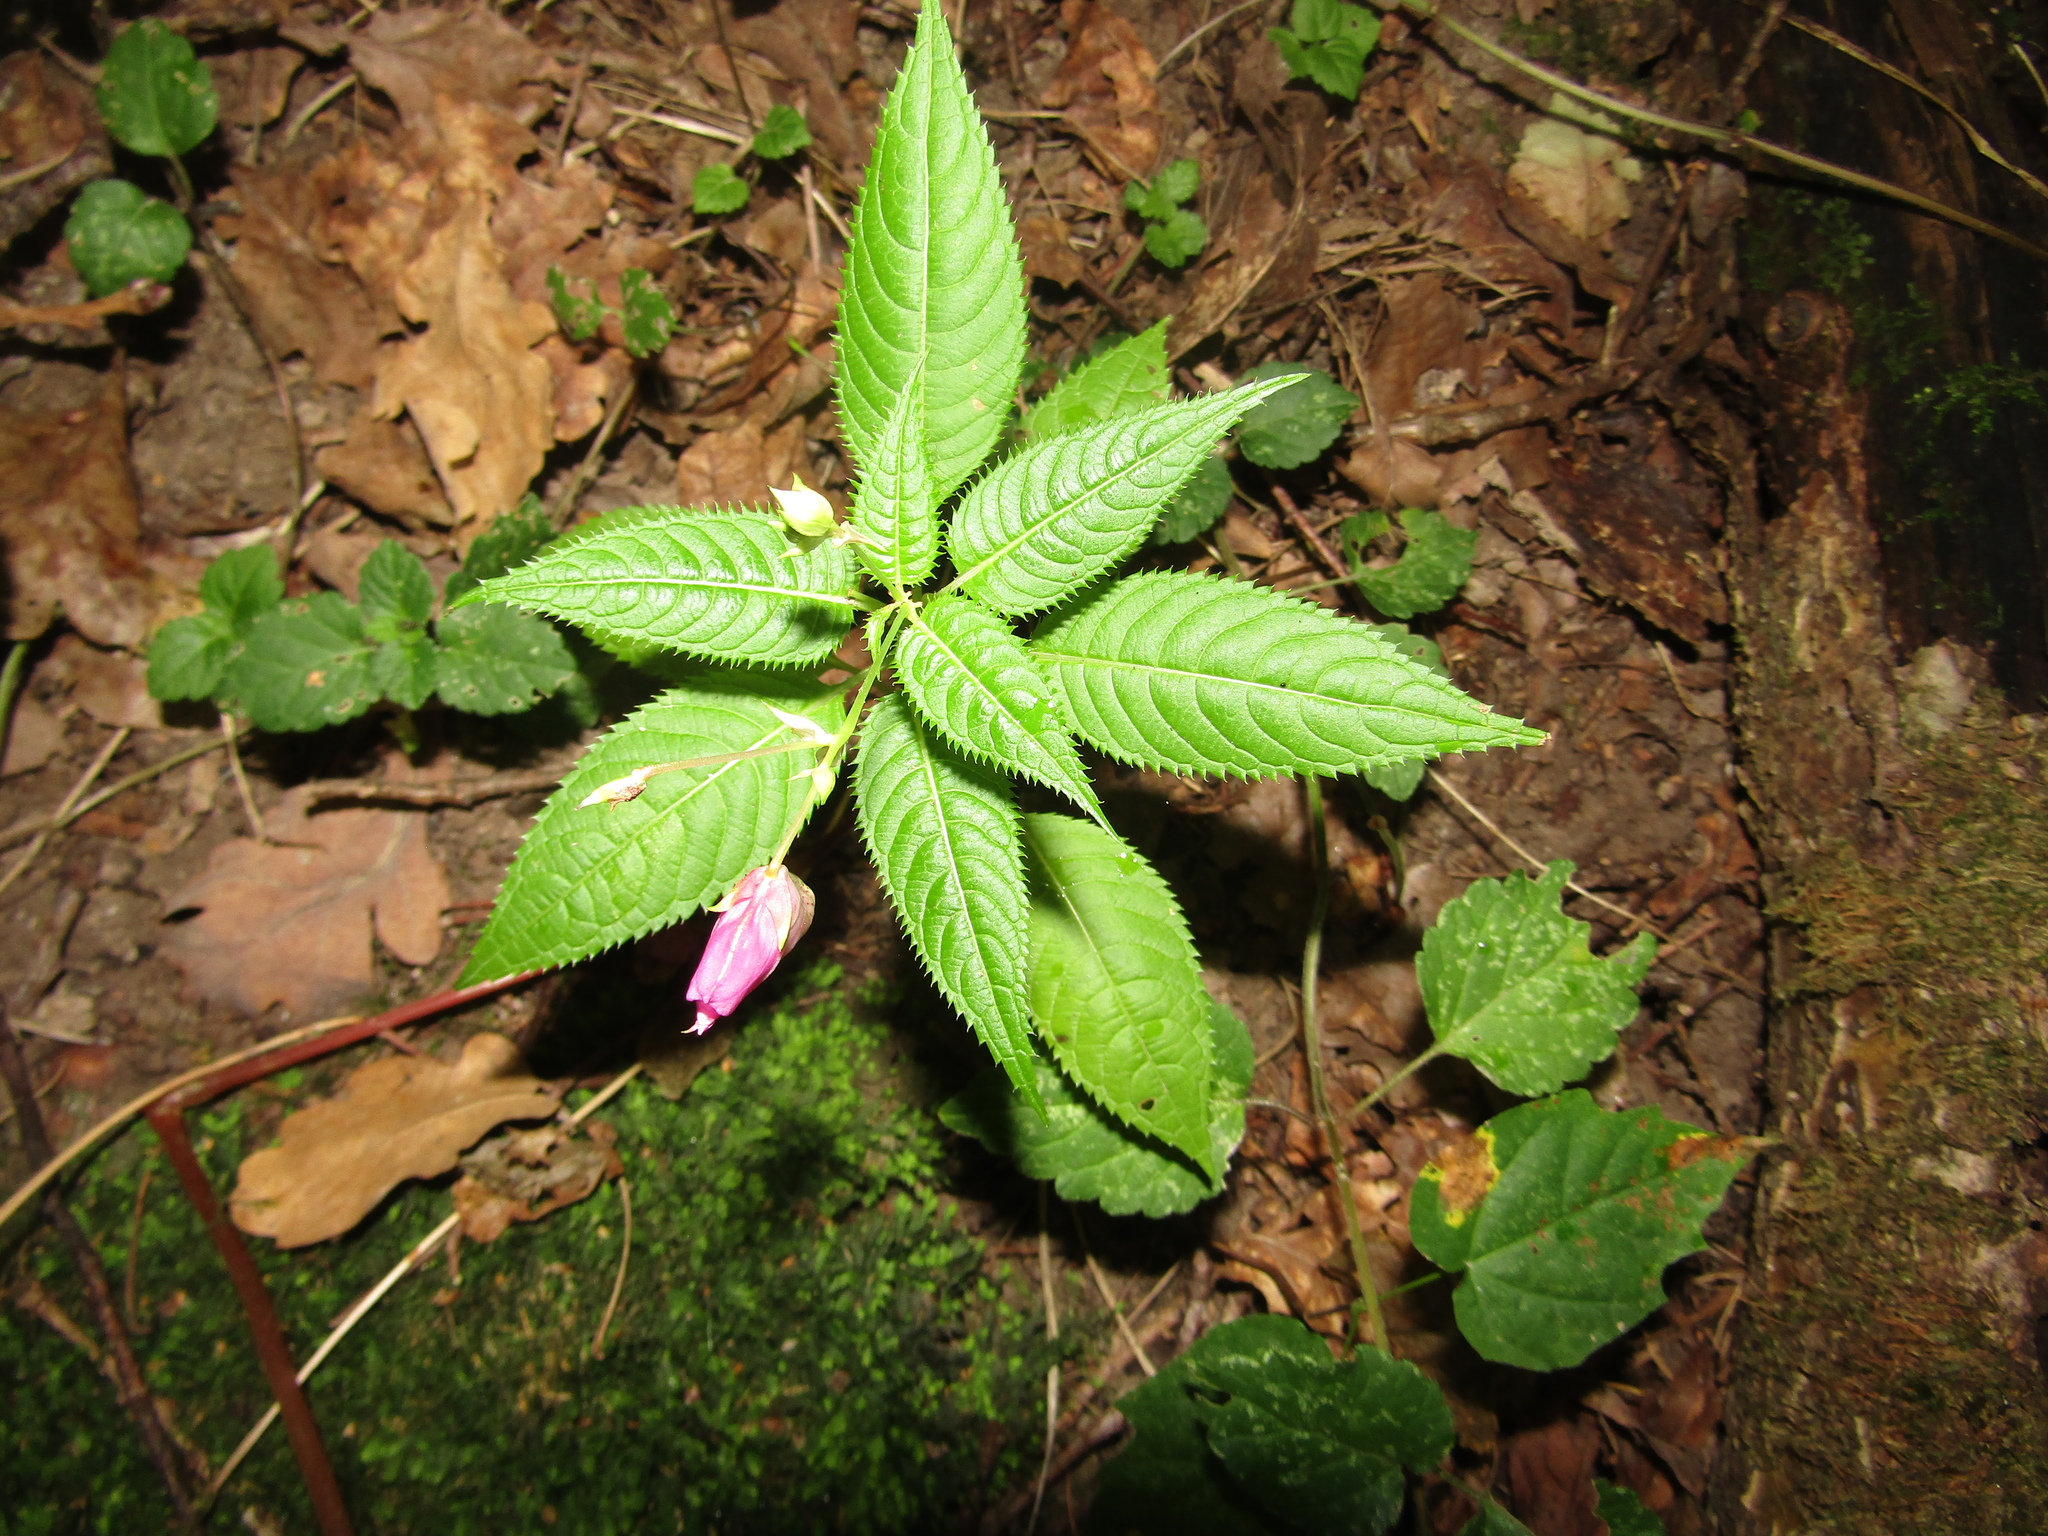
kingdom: Plantae
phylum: Tracheophyta
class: Magnoliopsida
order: Ericales
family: Balsaminaceae
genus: Impatiens
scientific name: Impatiens glandulifera
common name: Himalayan balsam
